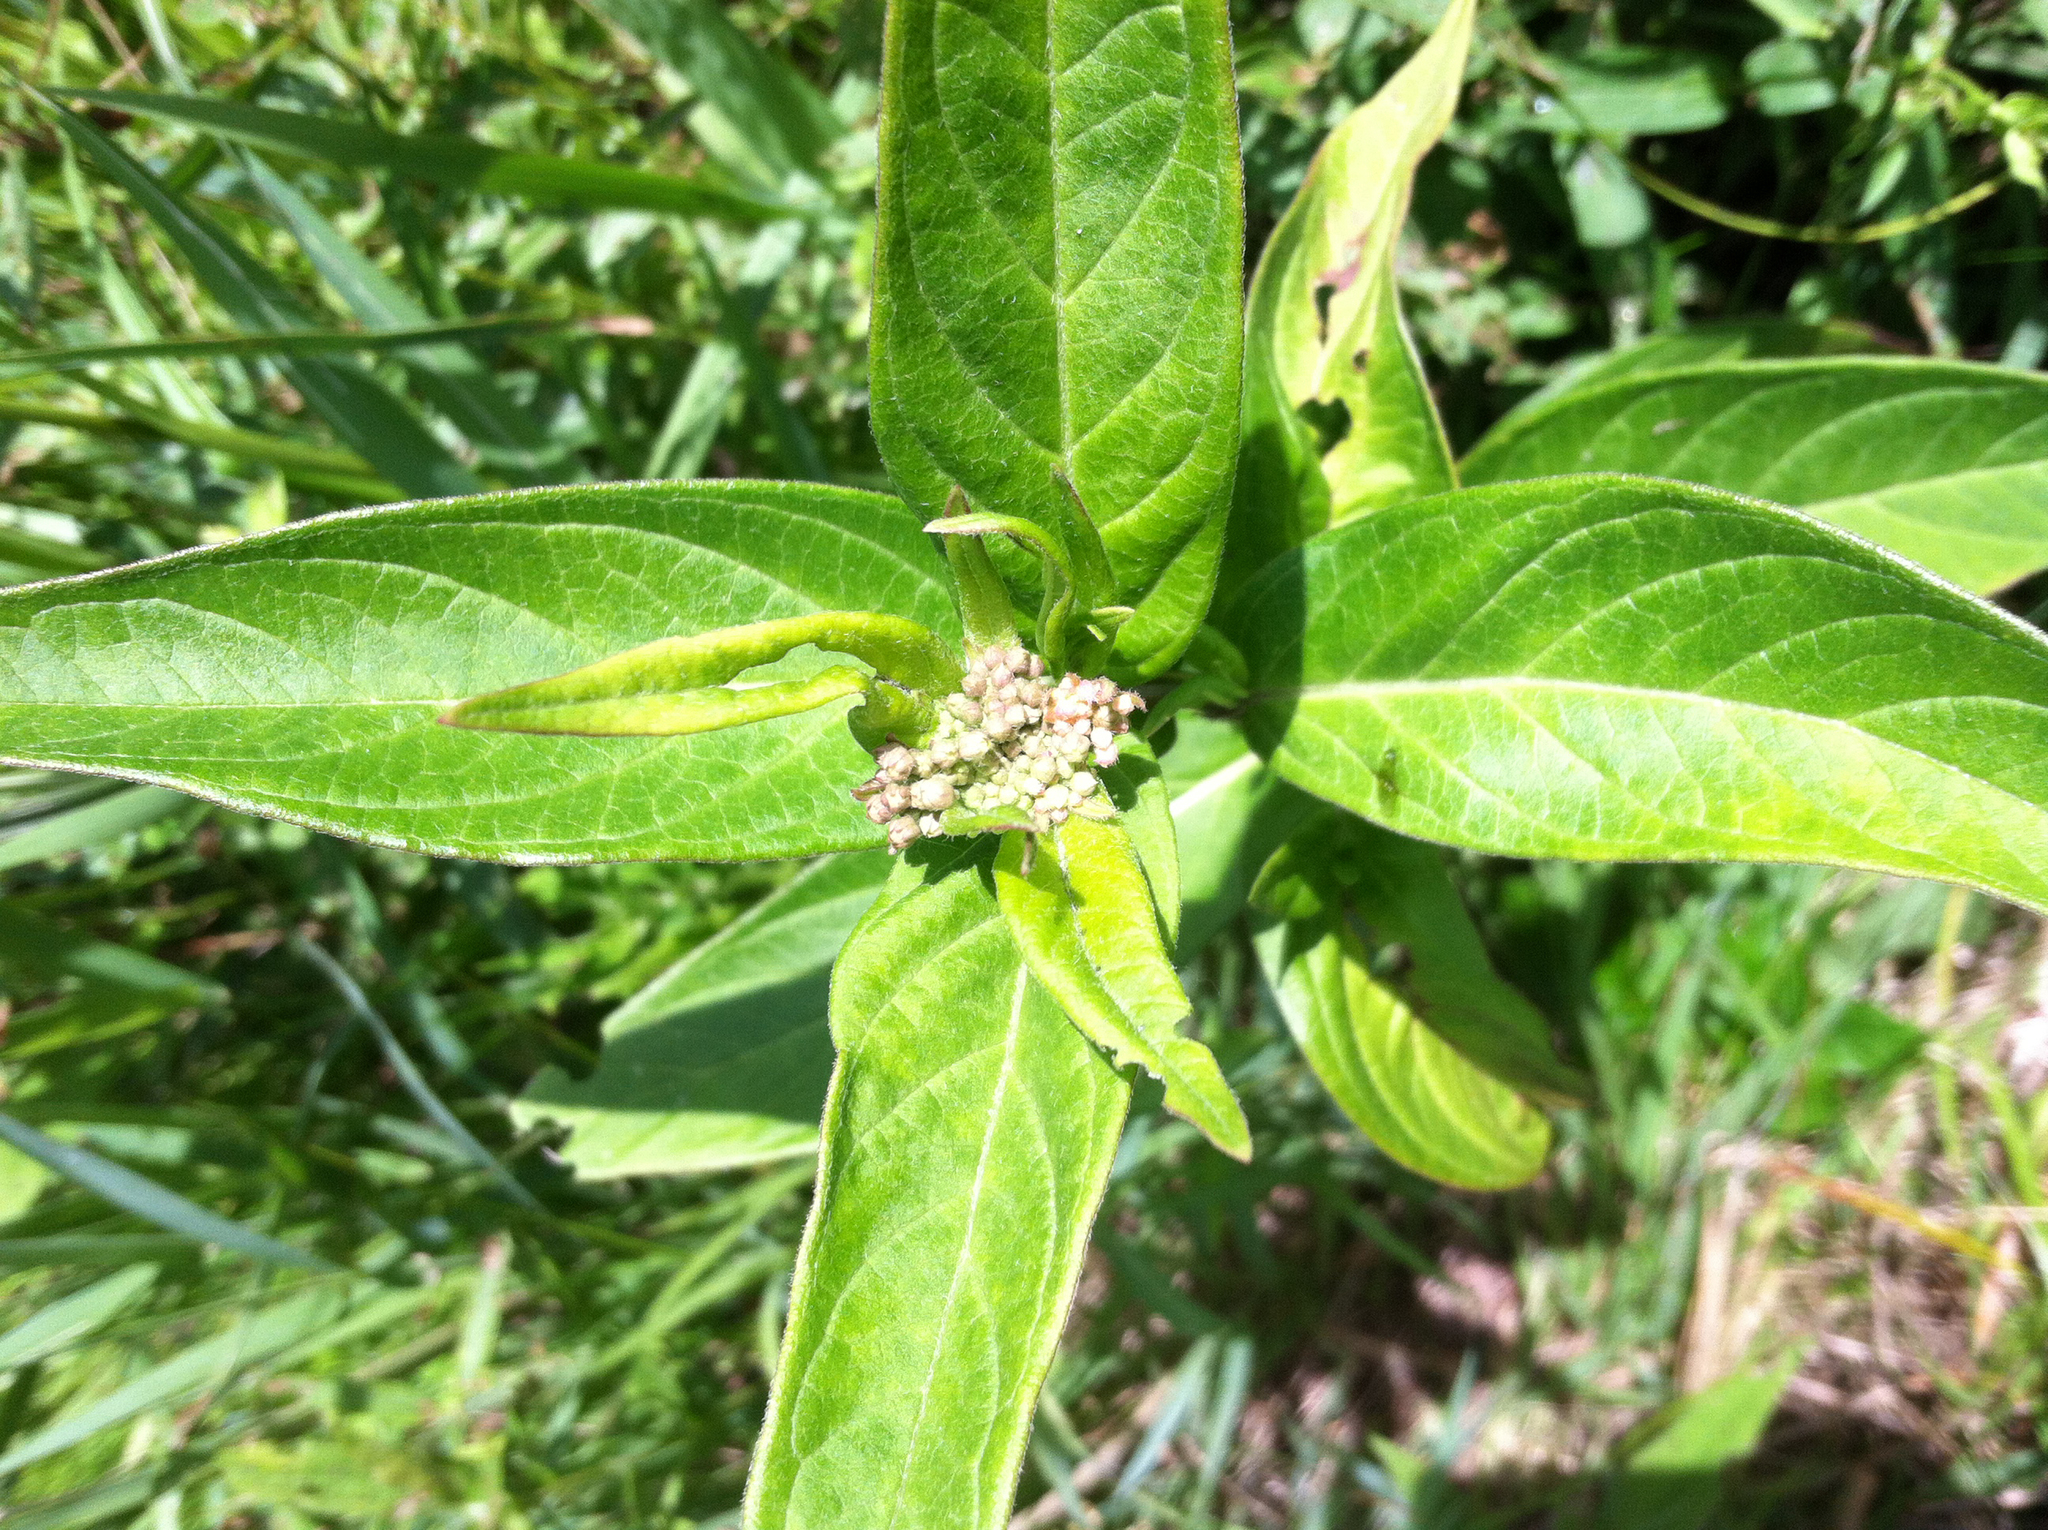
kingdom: Plantae
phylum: Tracheophyta
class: Magnoliopsida
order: Gentianales
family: Apocynaceae
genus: Asclepias
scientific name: Asclepias incarnata
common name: Swamp milkweed
